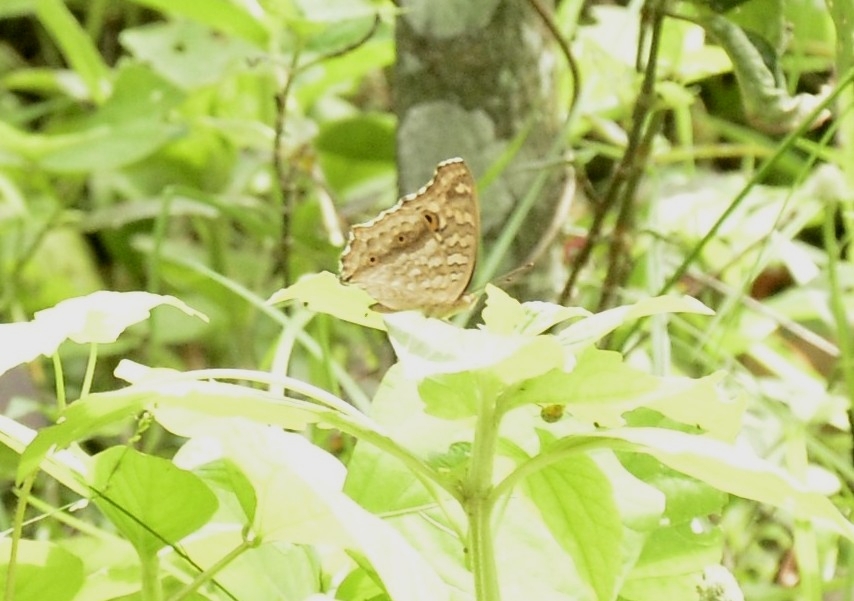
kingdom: Animalia
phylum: Arthropoda
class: Insecta
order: Lepidoptera
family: Nymphalidae
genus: Junonia
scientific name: Junonia lemonias
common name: Lemon pansy
